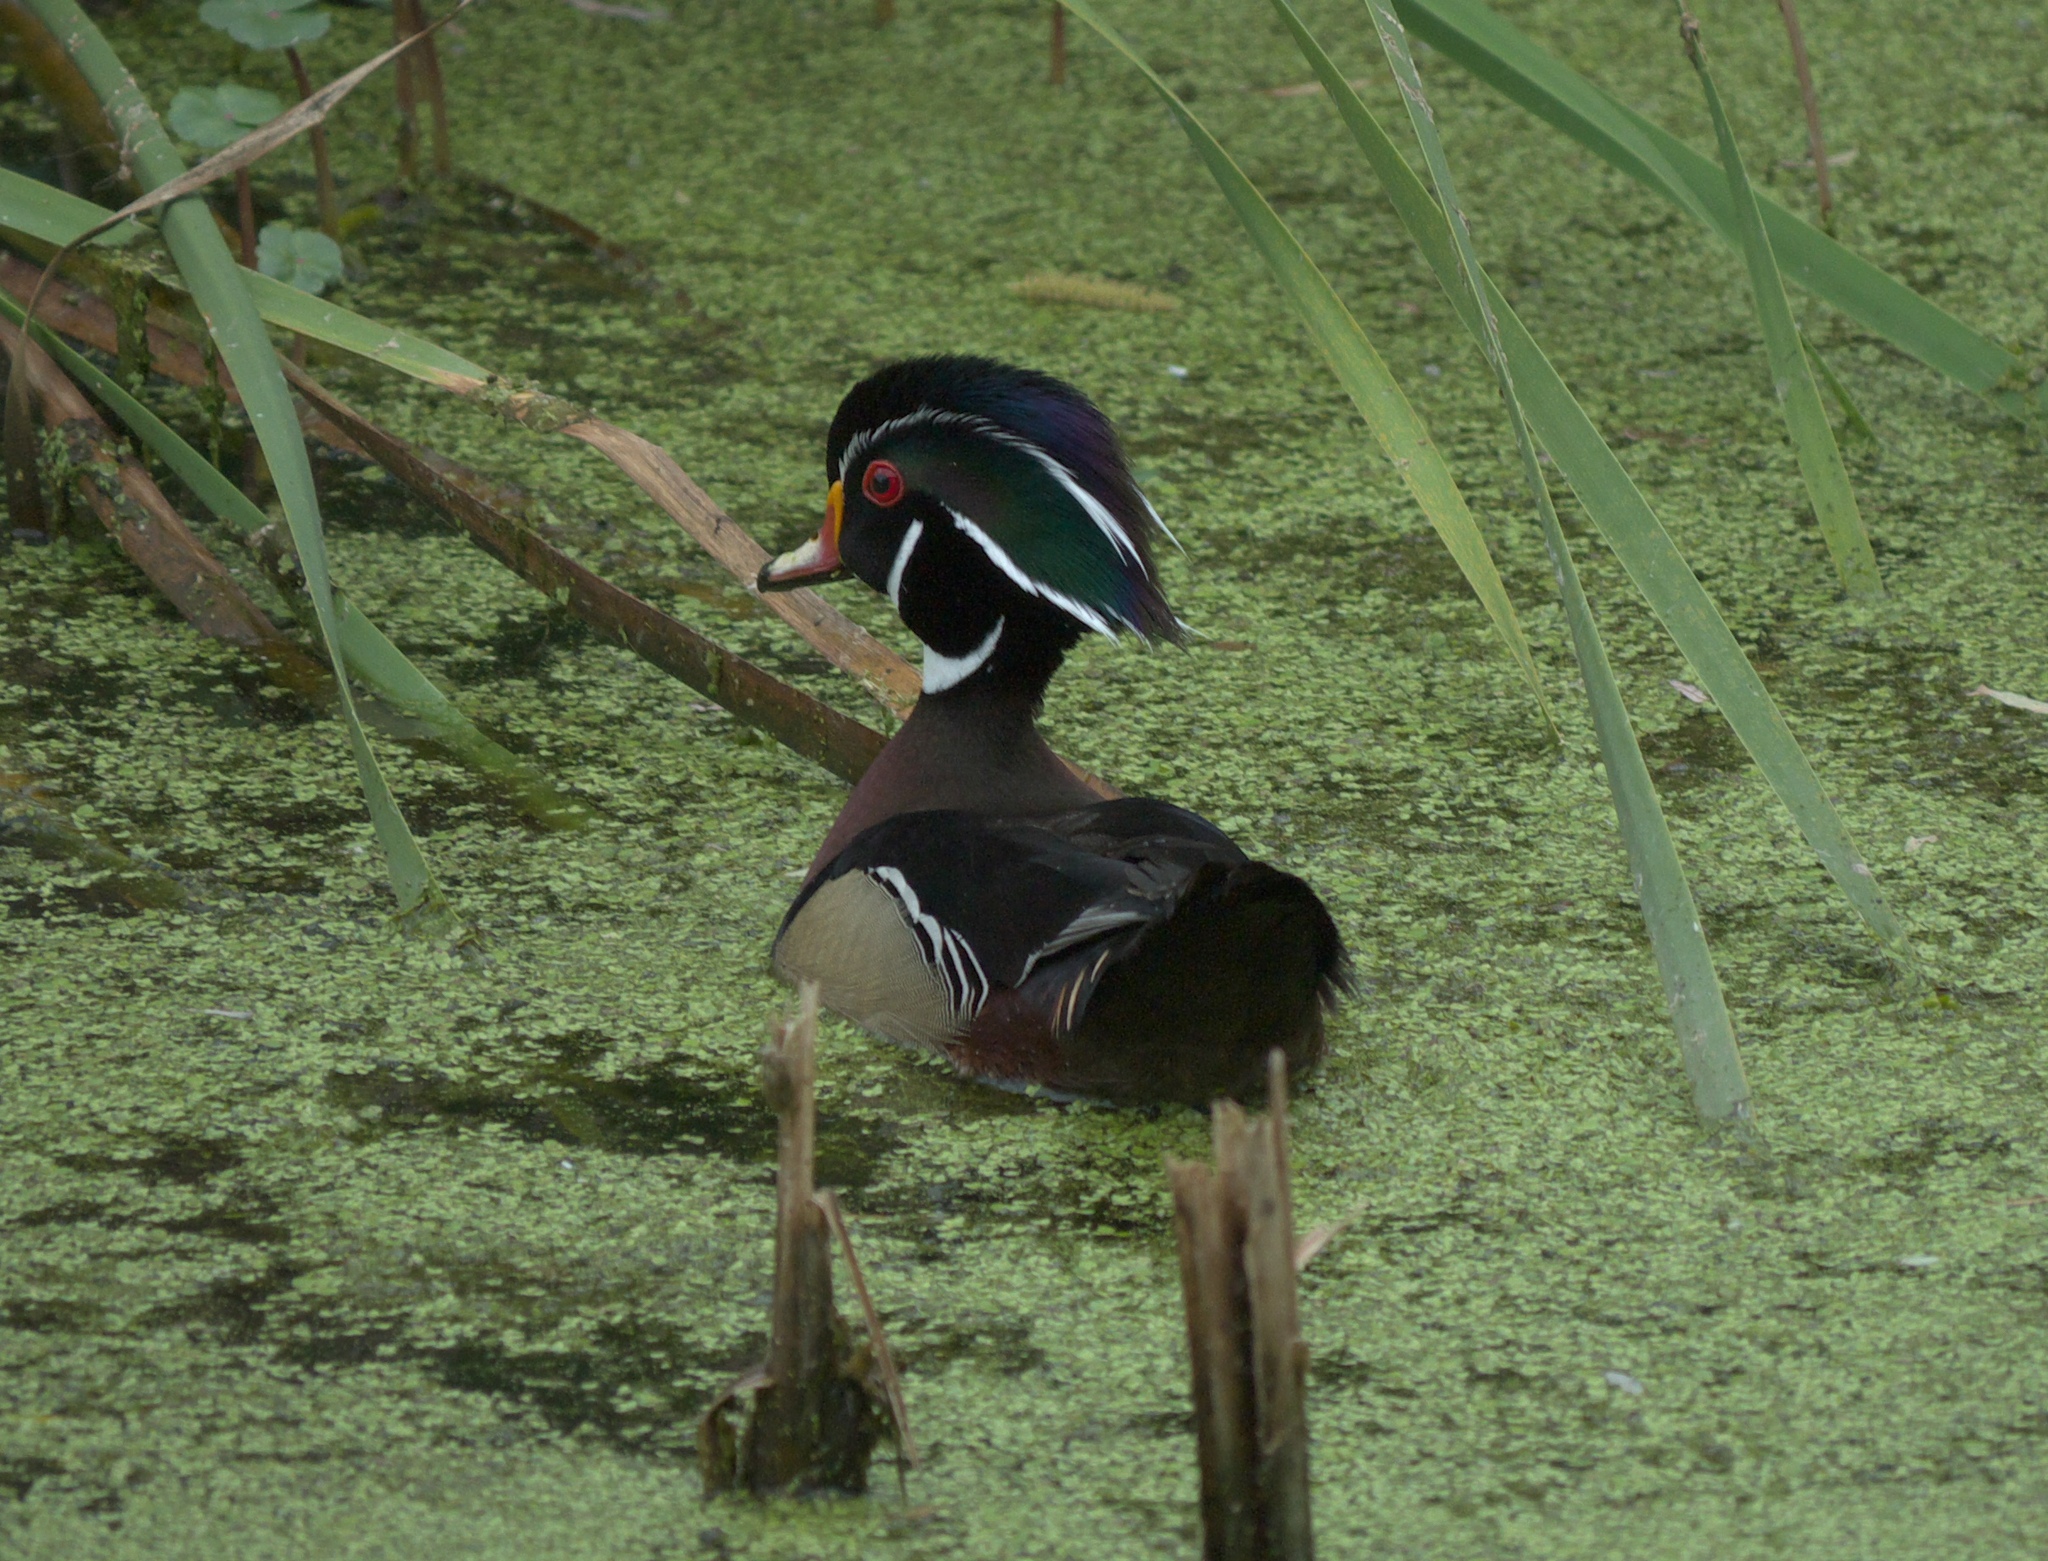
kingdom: Animalia
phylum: Chordata
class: Aves
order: Anseriformes
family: Anatidae
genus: Aix
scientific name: Aix sponsa
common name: Wood duck
